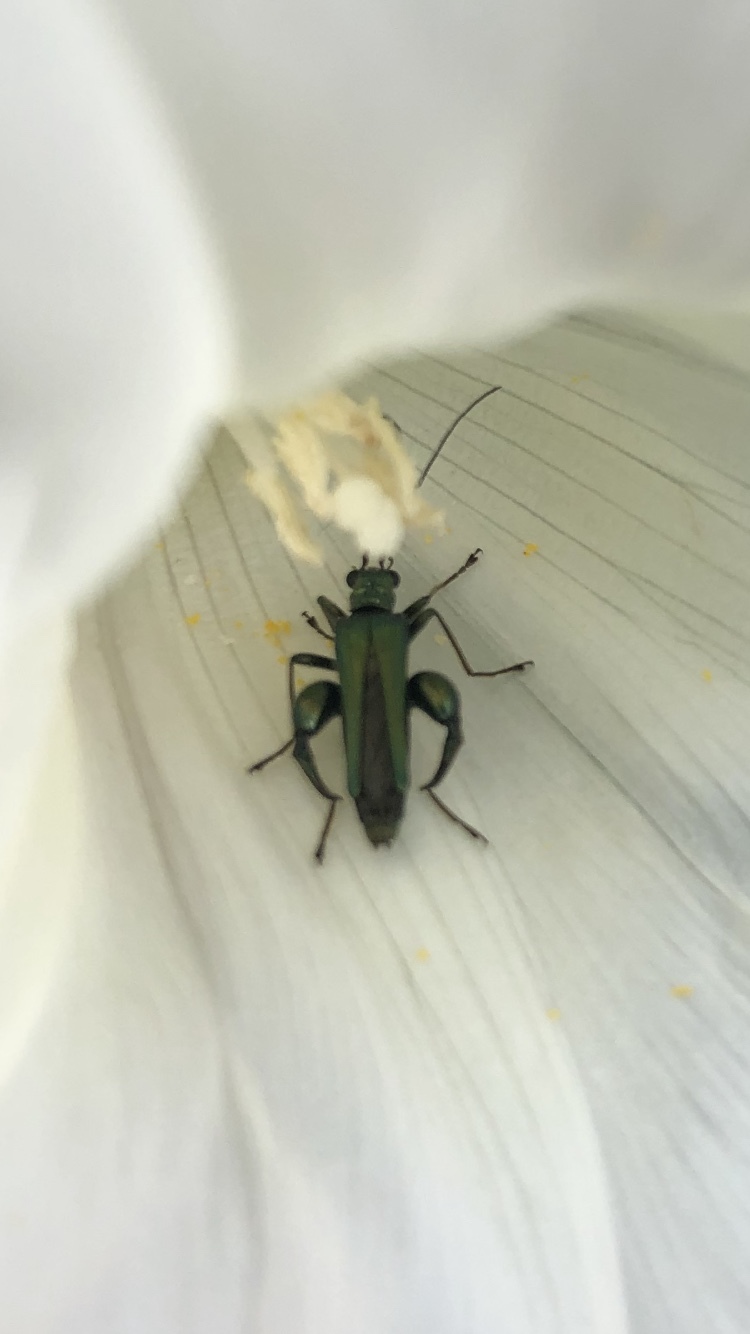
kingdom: Animalia
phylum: Arthropoda
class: Insecta
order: Coleoptera
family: Oedemeridae
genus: Oedemera
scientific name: Oedemera nobilis
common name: Swollen-thighed beetle
